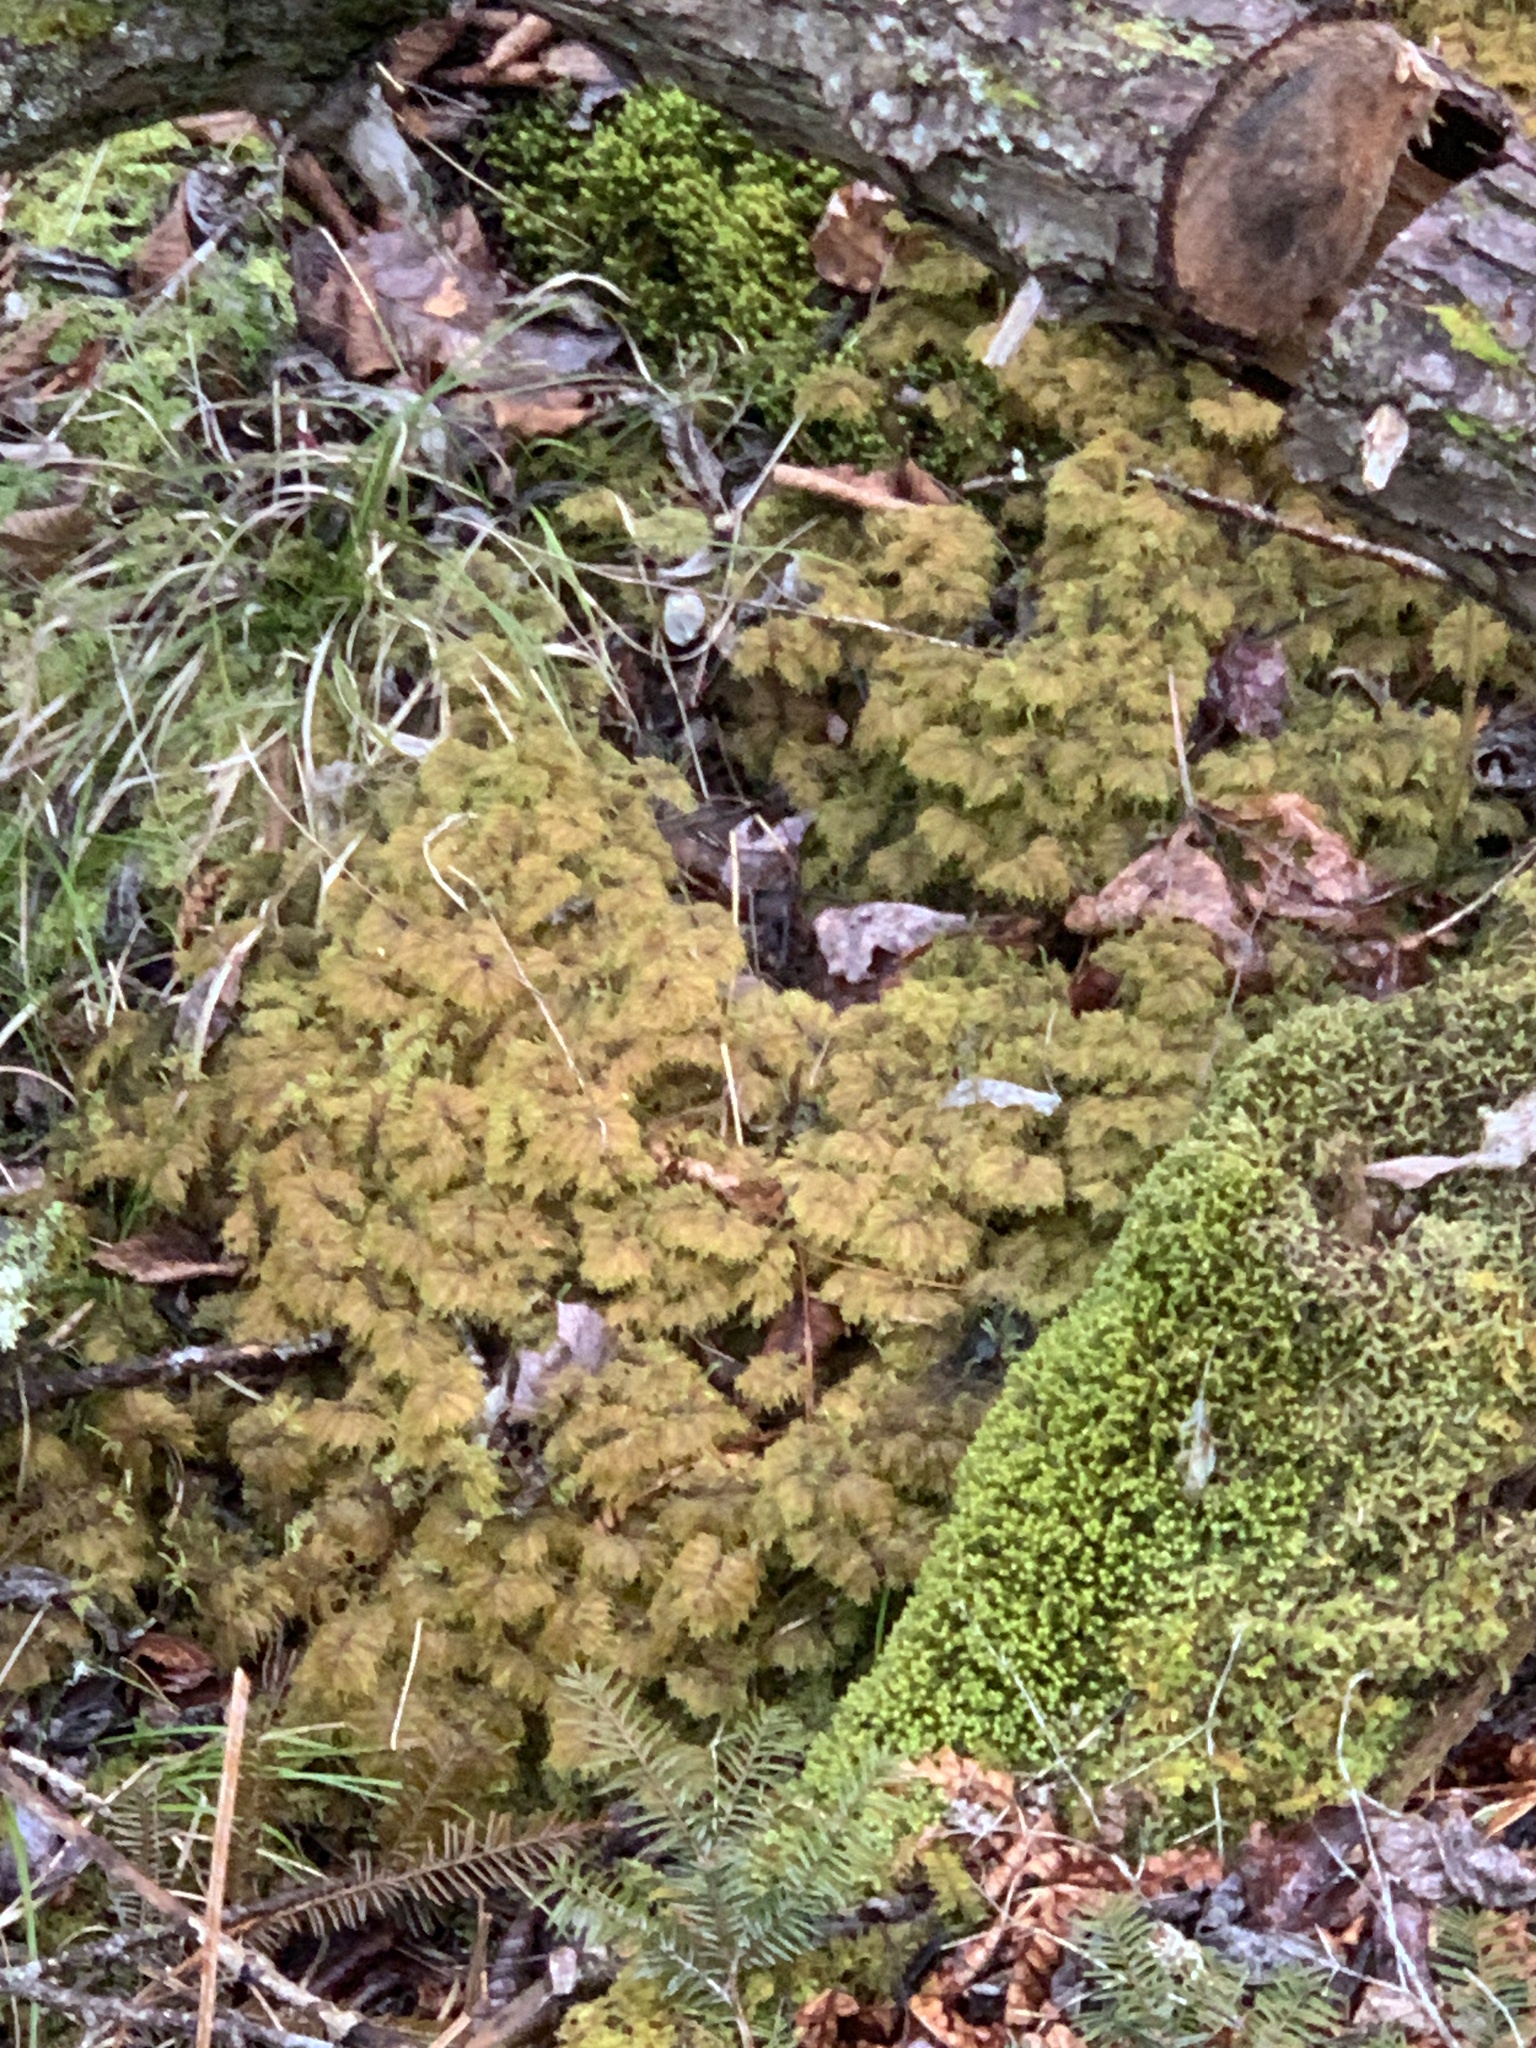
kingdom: Plantae
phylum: Bryophyta
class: Bryopsida
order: Hypnales
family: Hylocomiaceae
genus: Hylocomium
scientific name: Hylocomium splendens
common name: Stairstep moss
